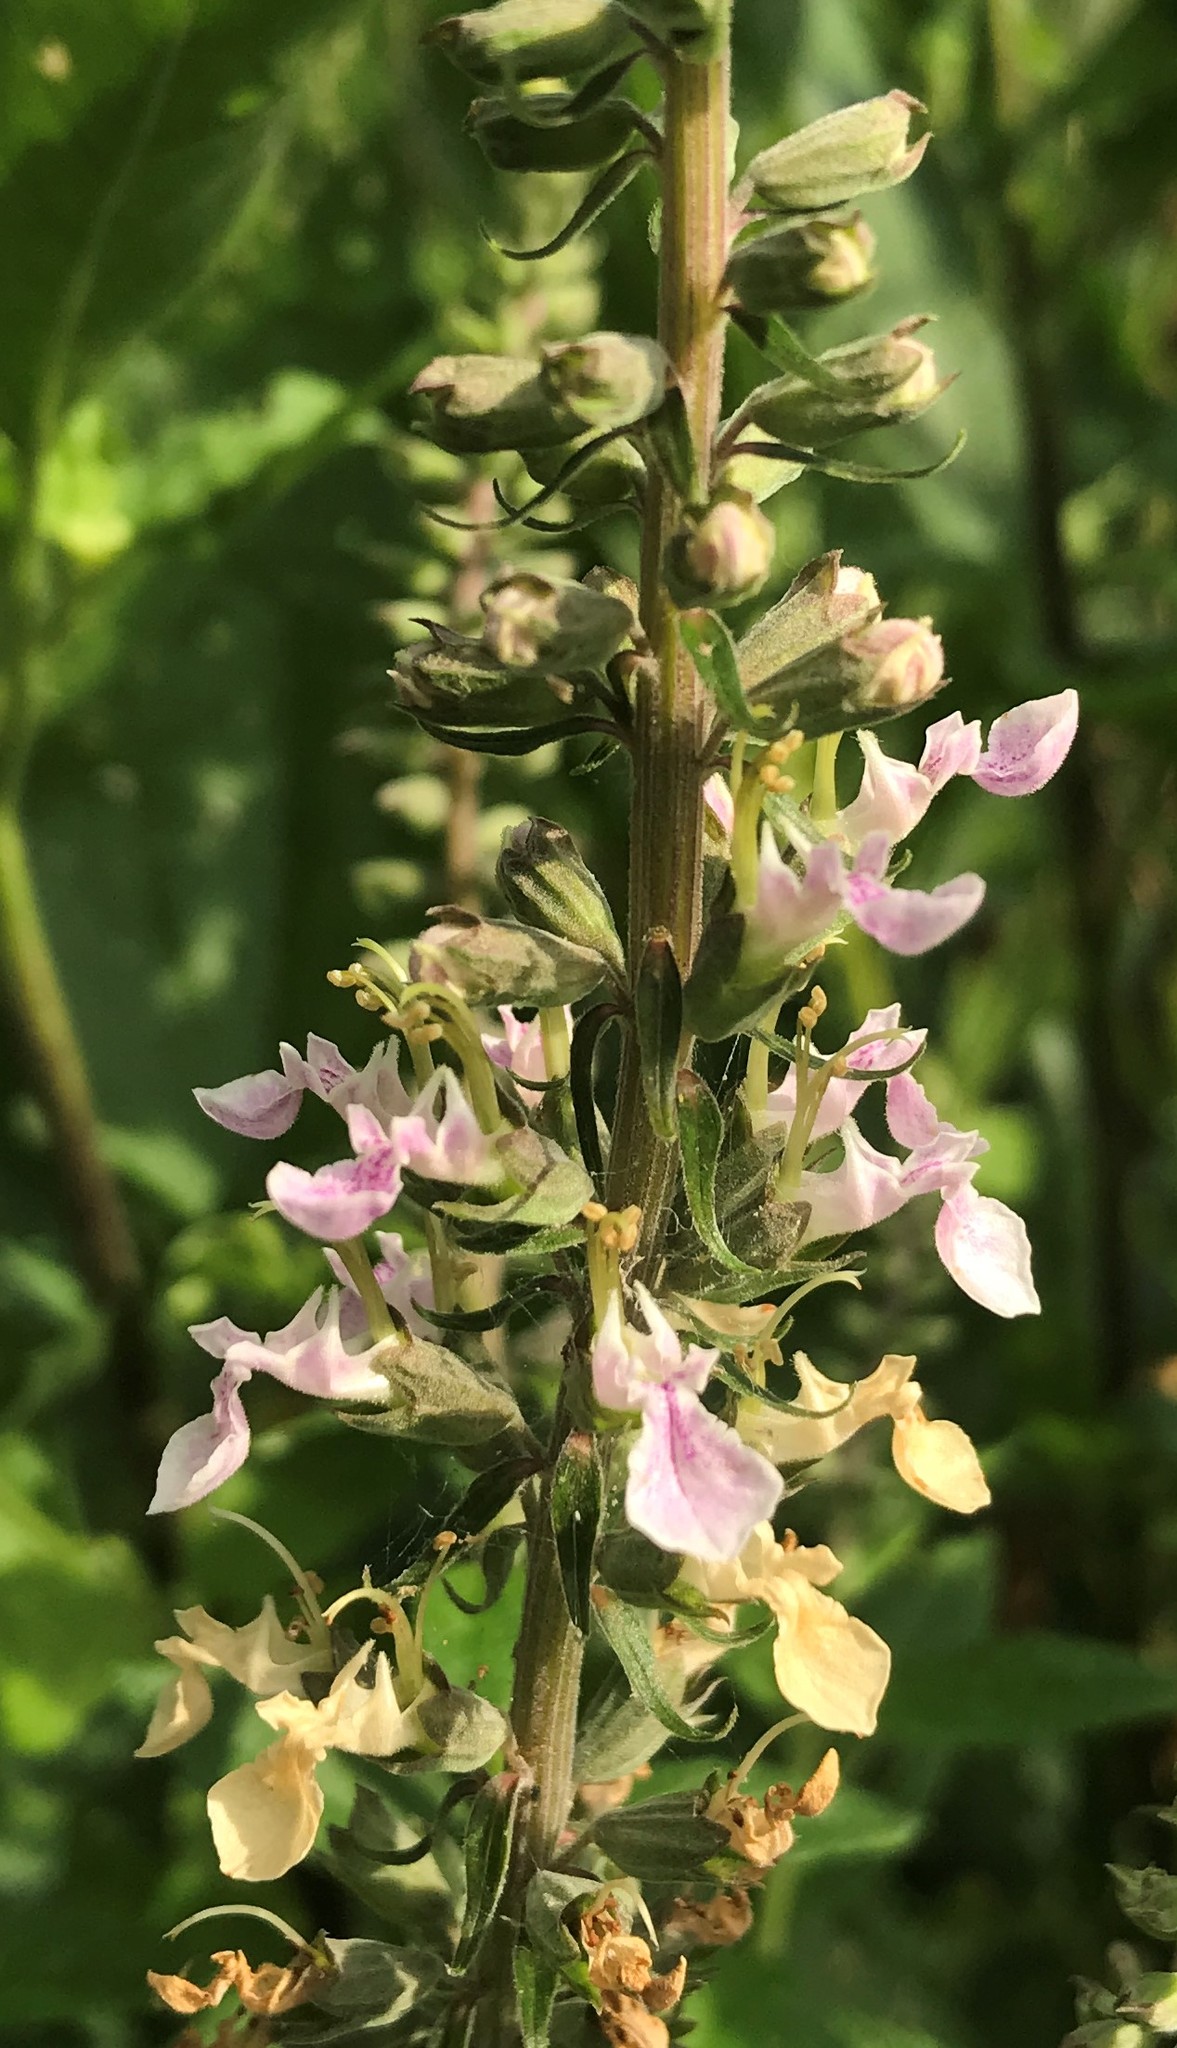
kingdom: Plantae
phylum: Tracheophyta
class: Magnoliopsida
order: Lamiales
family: Lamiaceae
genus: Teucrium
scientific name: Teucrium canadense
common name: American germander
